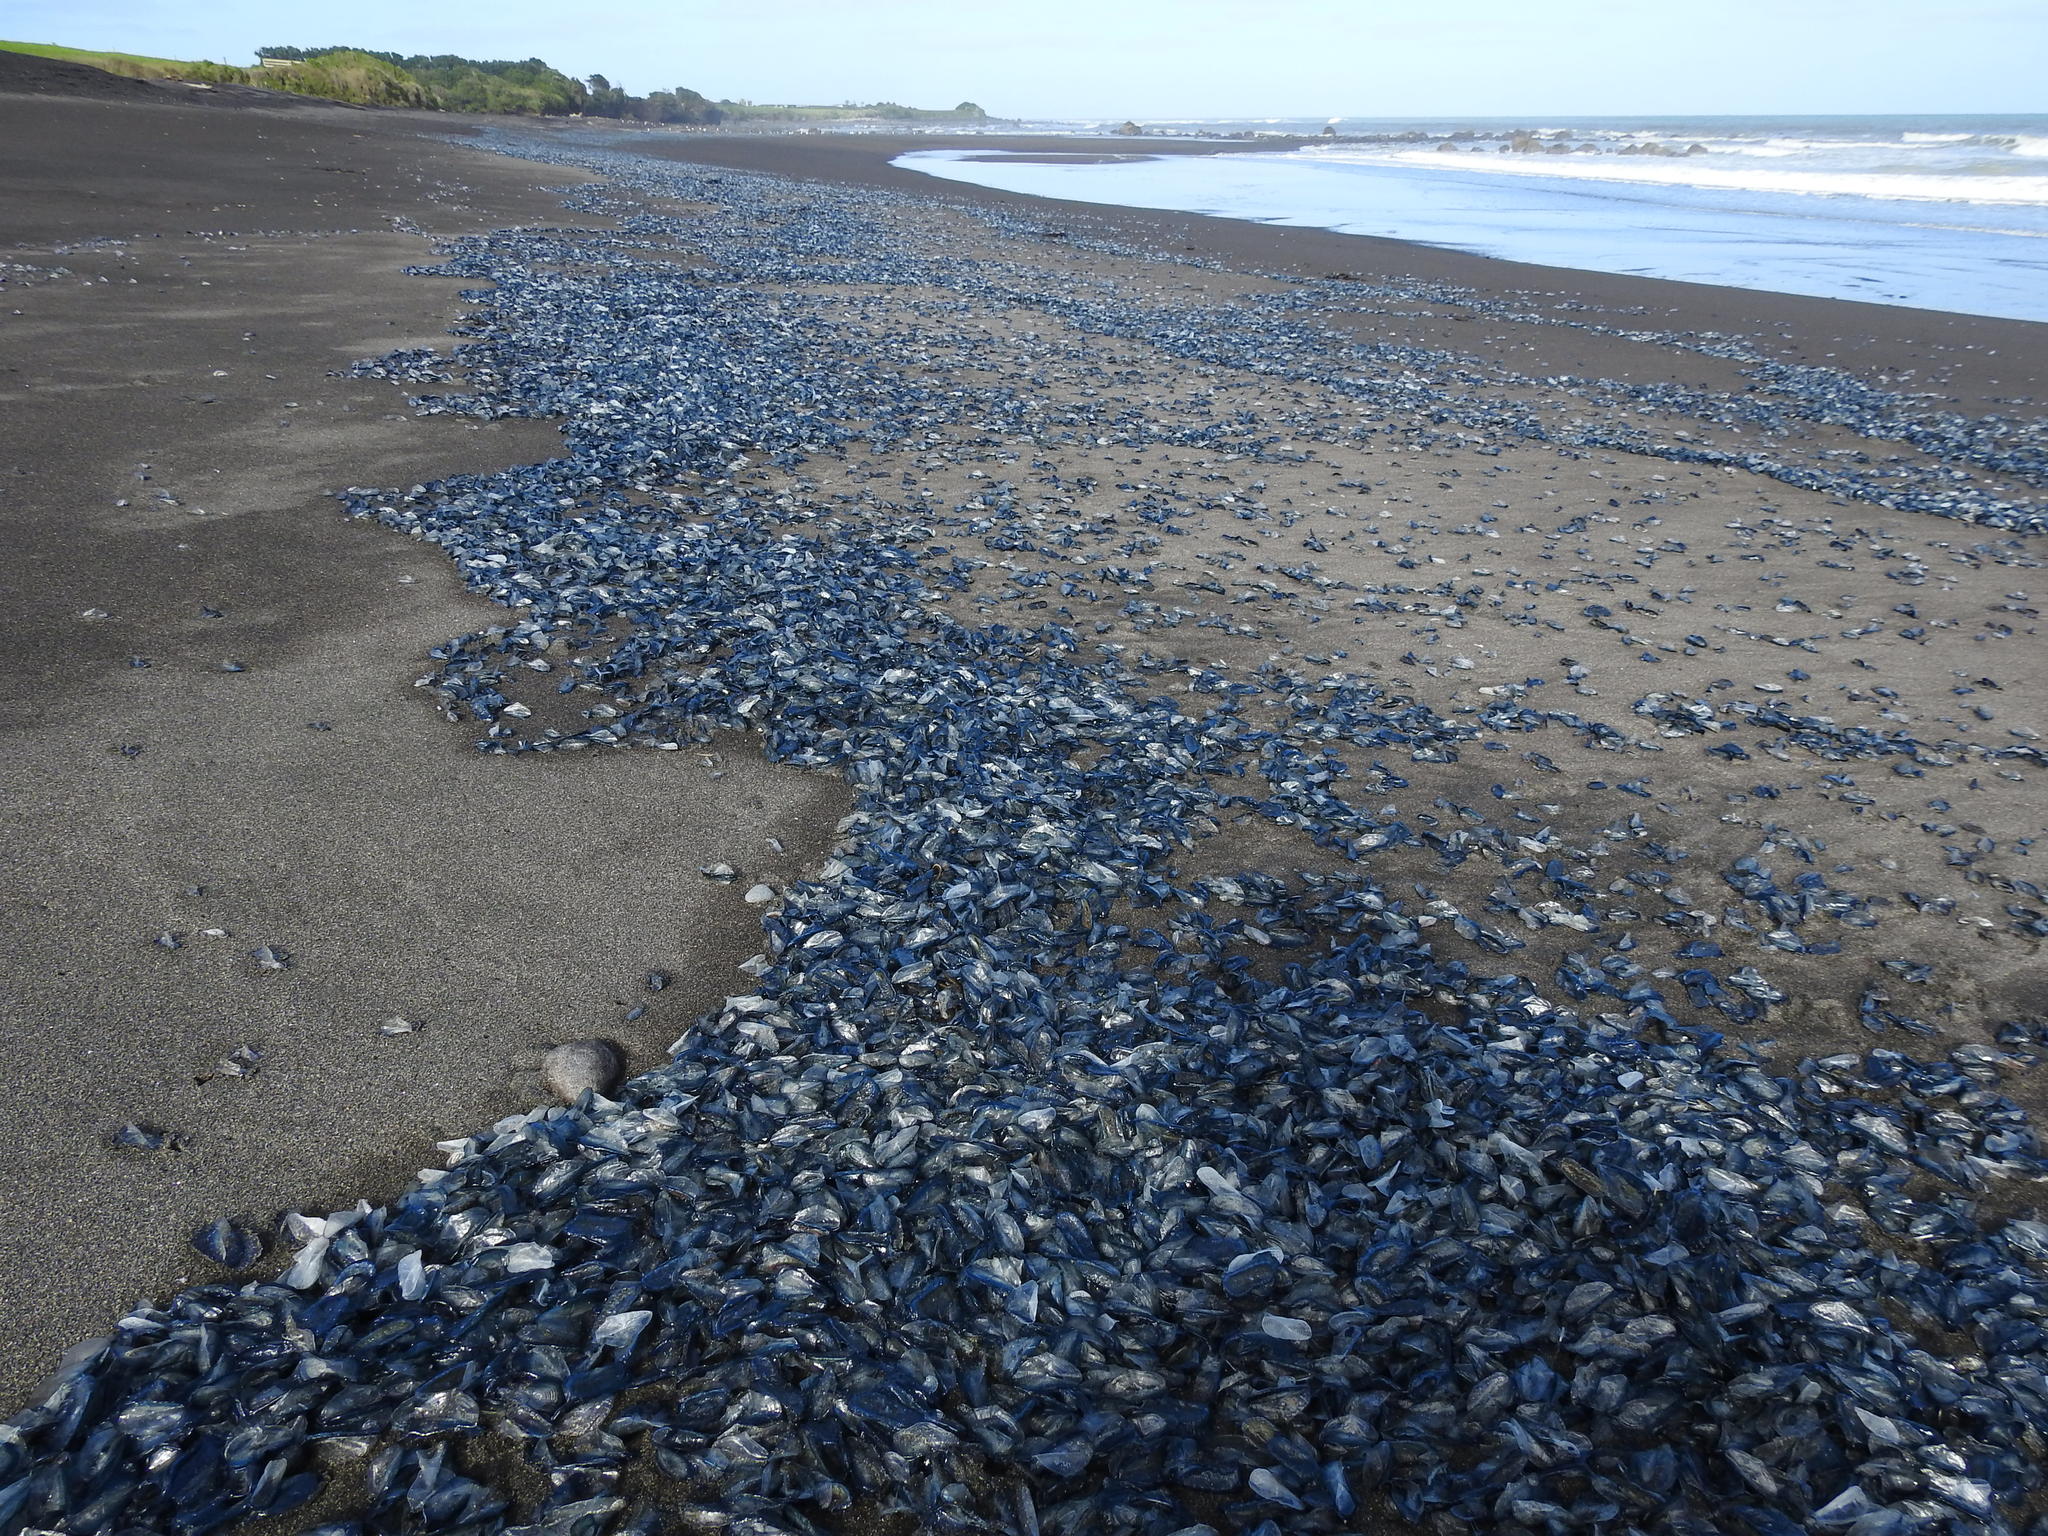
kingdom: Animalia
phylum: Cnidaria
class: Hydrozoa
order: Anthoathecata
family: Porpitidae
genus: Velella
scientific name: Velella velella
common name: By-the-wind-sailor
